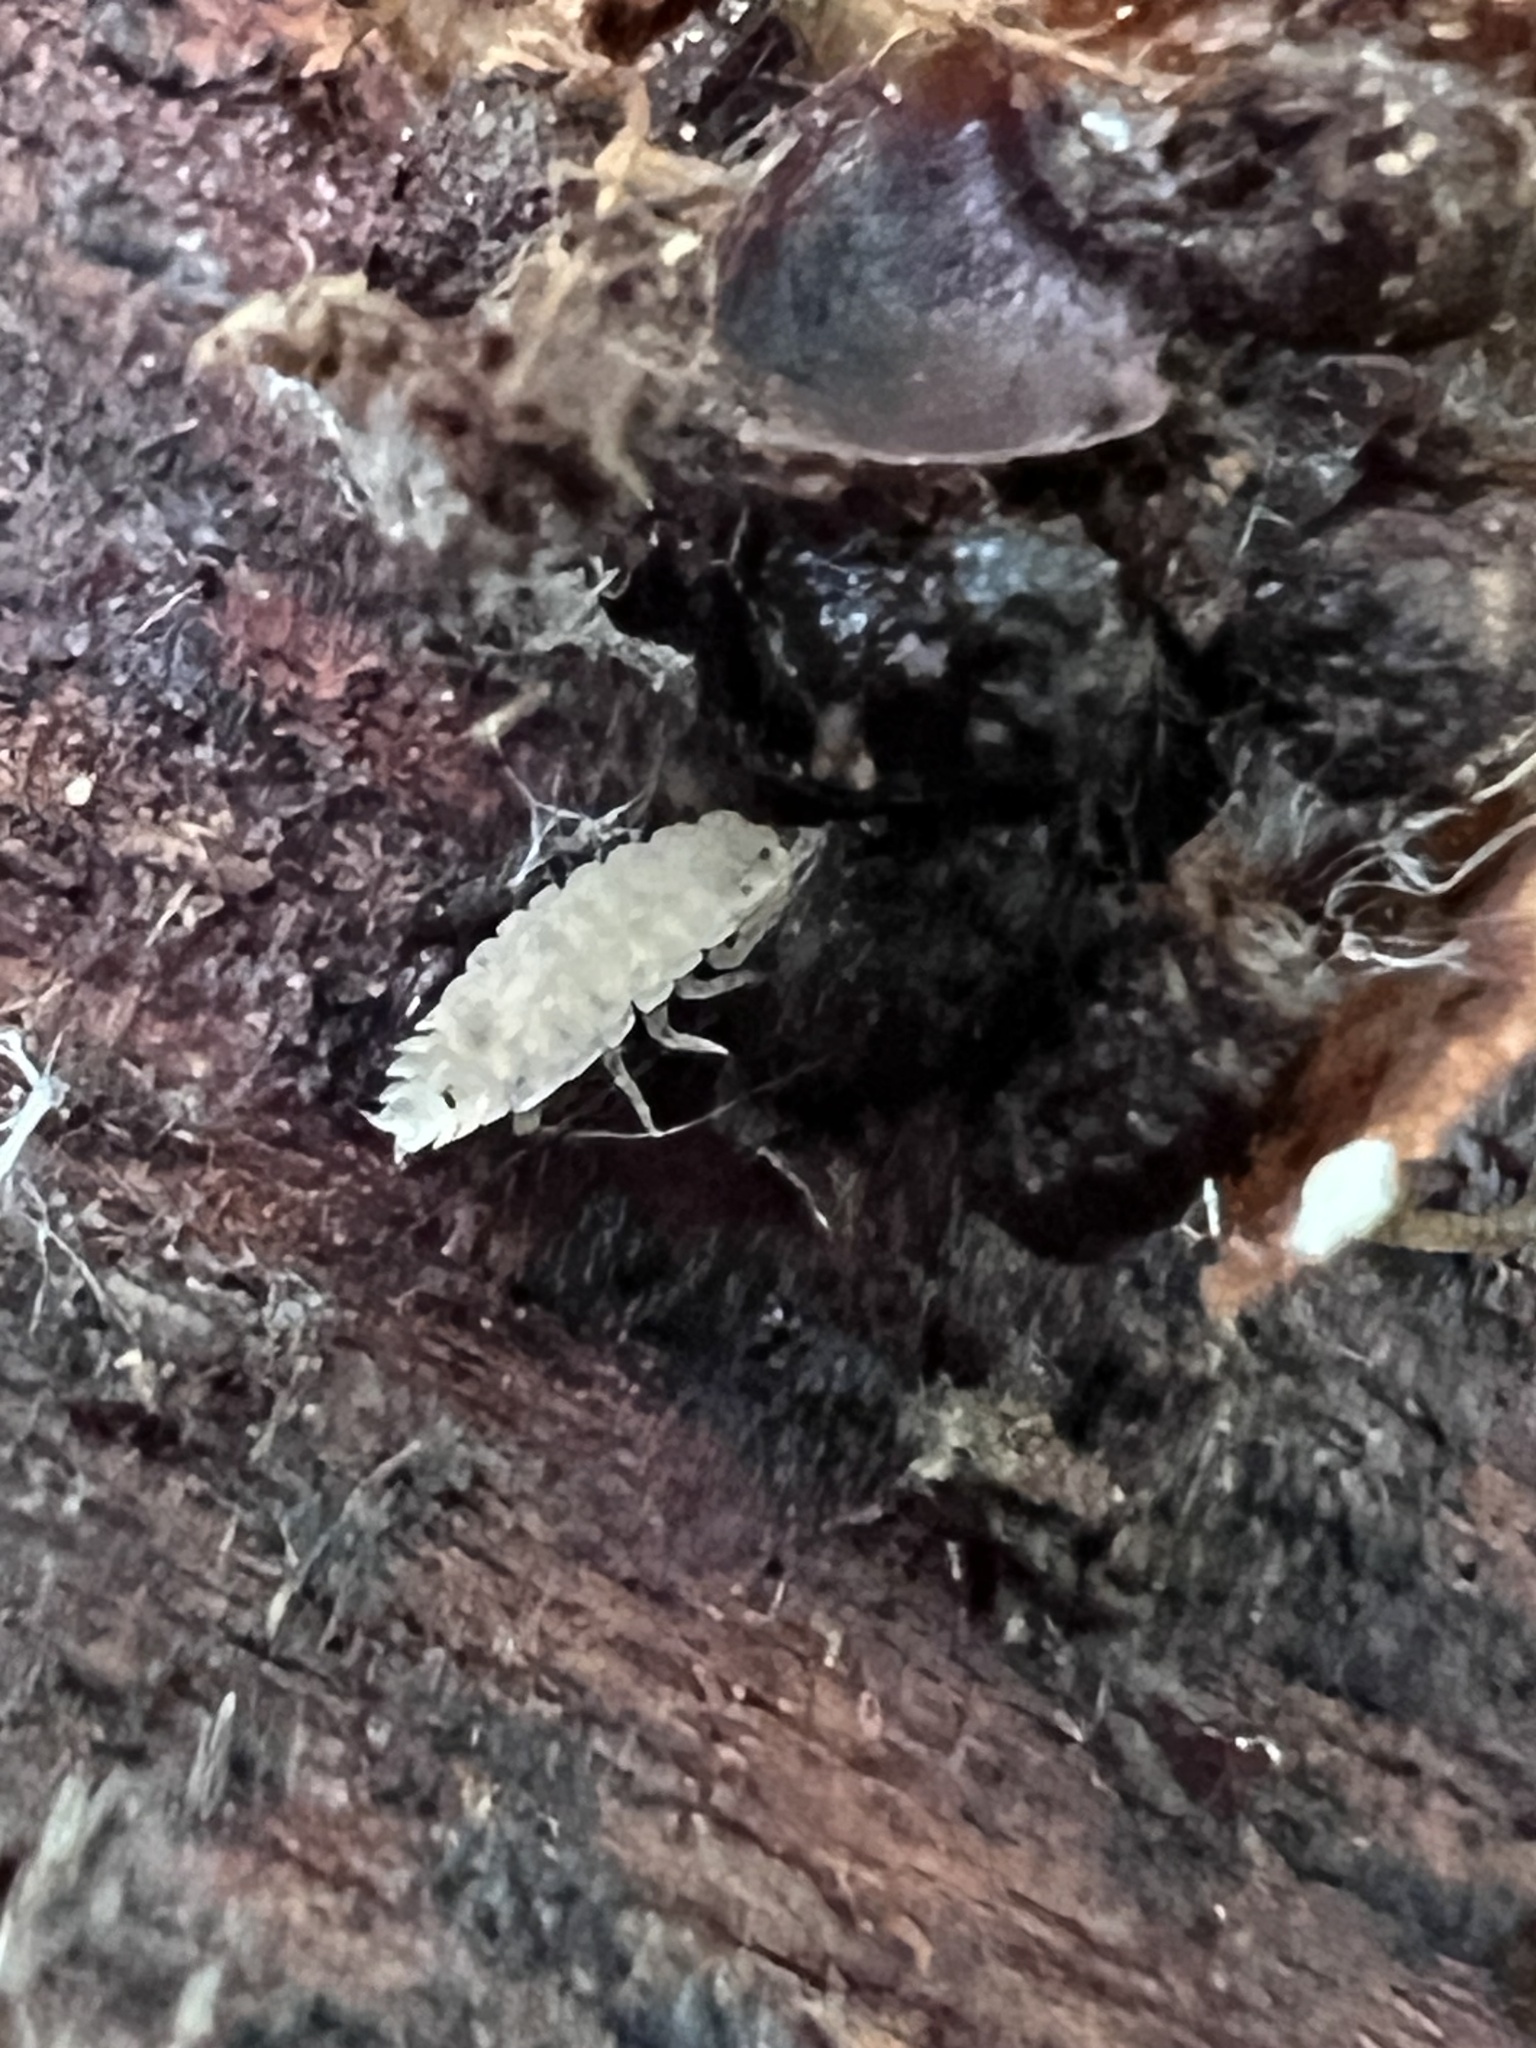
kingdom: Animalia
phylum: Arthropoda
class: Malacostraca
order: Isopoda
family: Trichoniscidae
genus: Haplophthalmus
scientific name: Haplophthalmus danicus
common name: Pillbug
